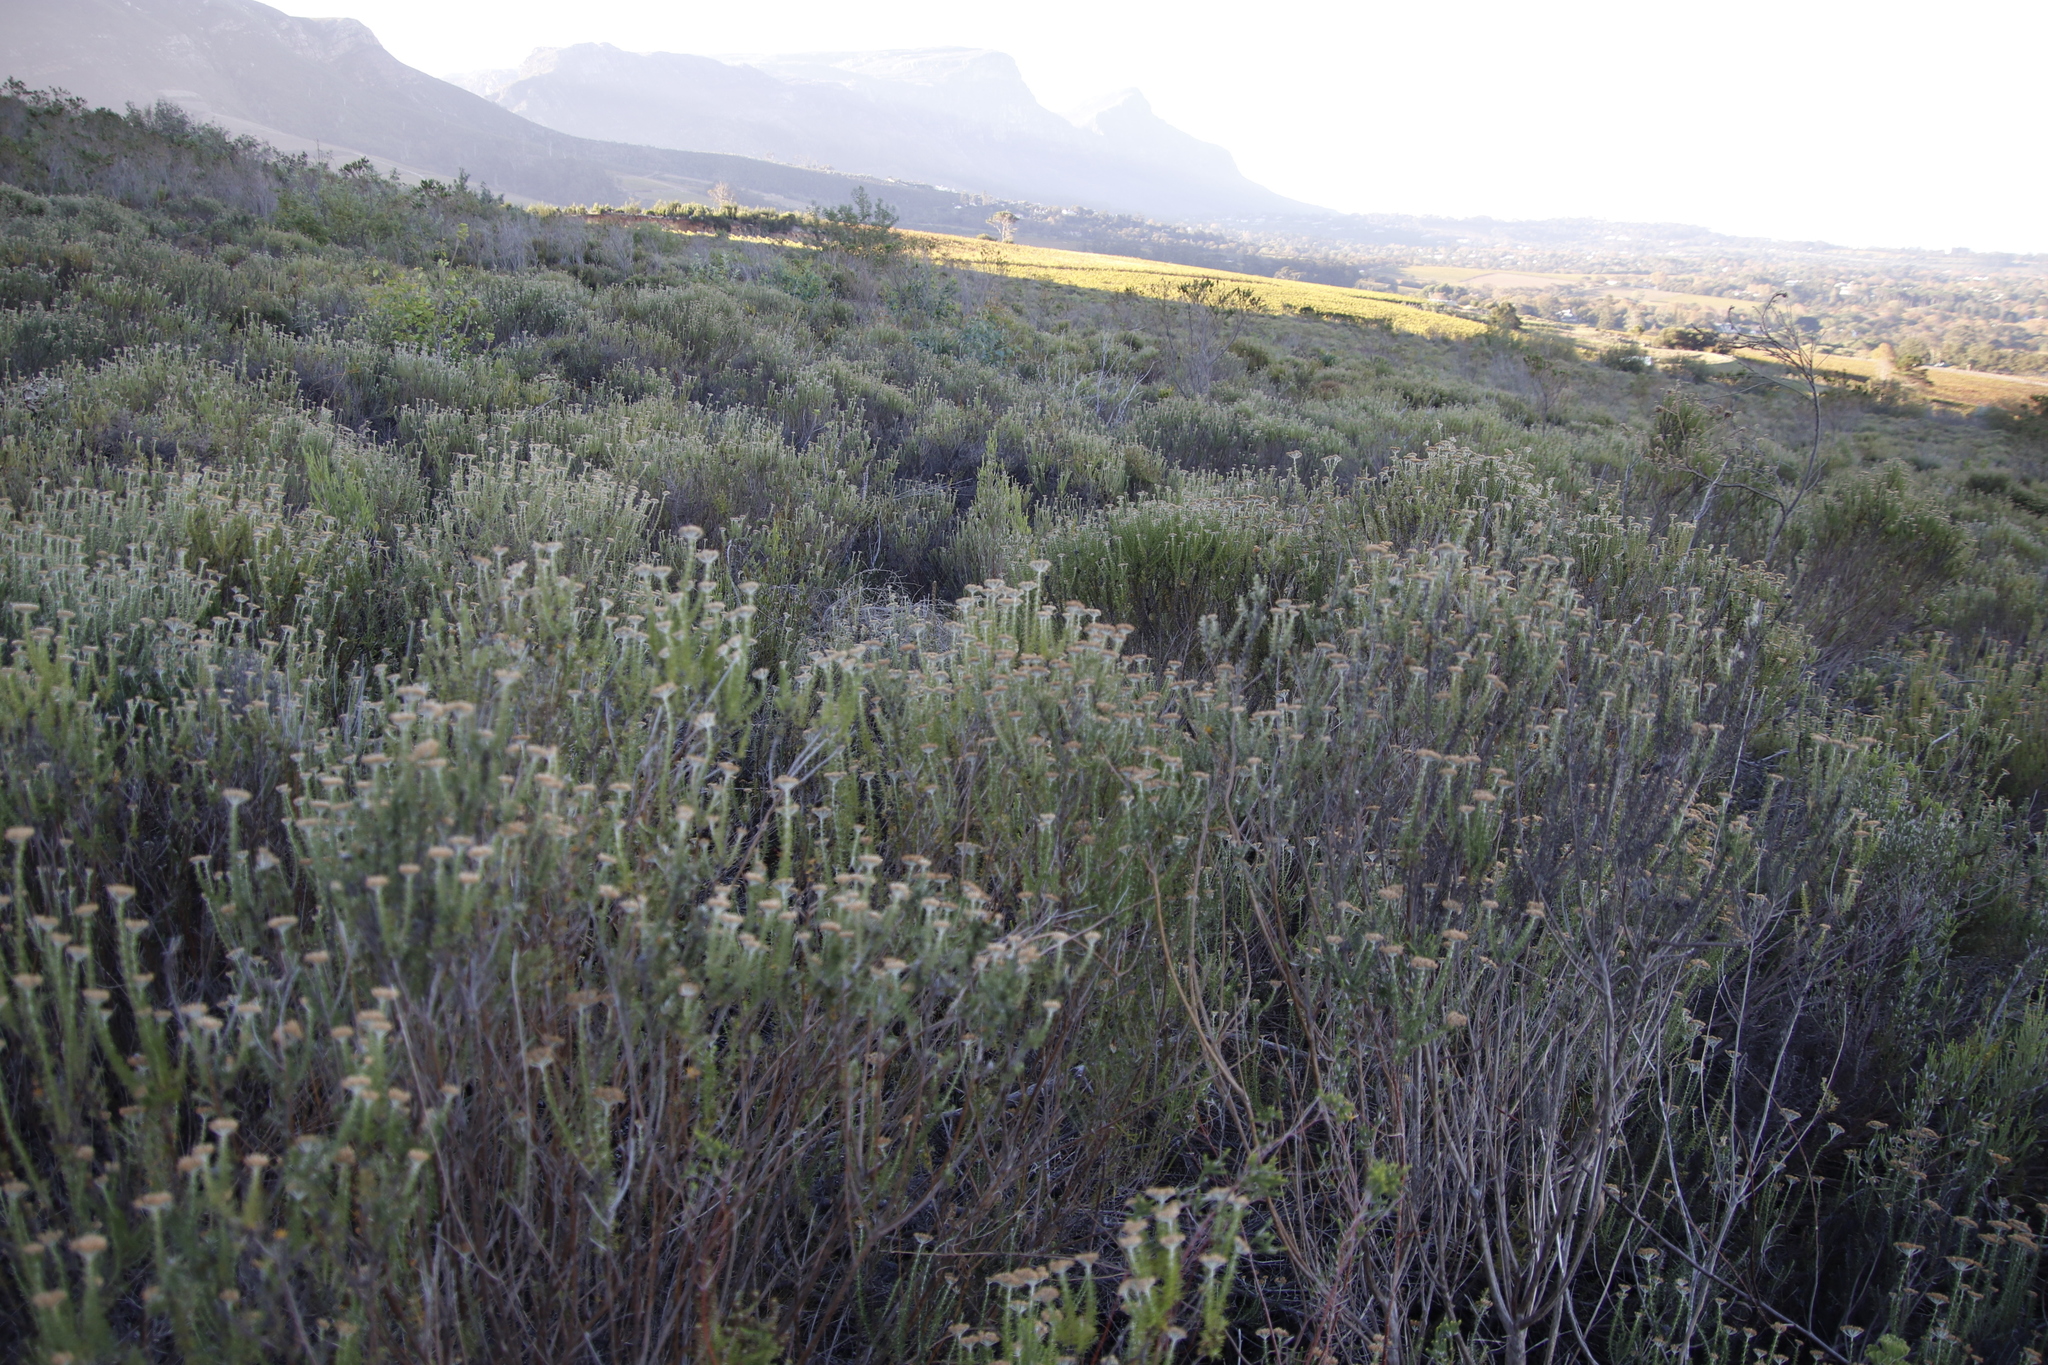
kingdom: Plantae
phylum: Tracheophyta
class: Magnoliopsida
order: Asterales
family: Asteraceae
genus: Metalasia
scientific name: Metalasia densa
